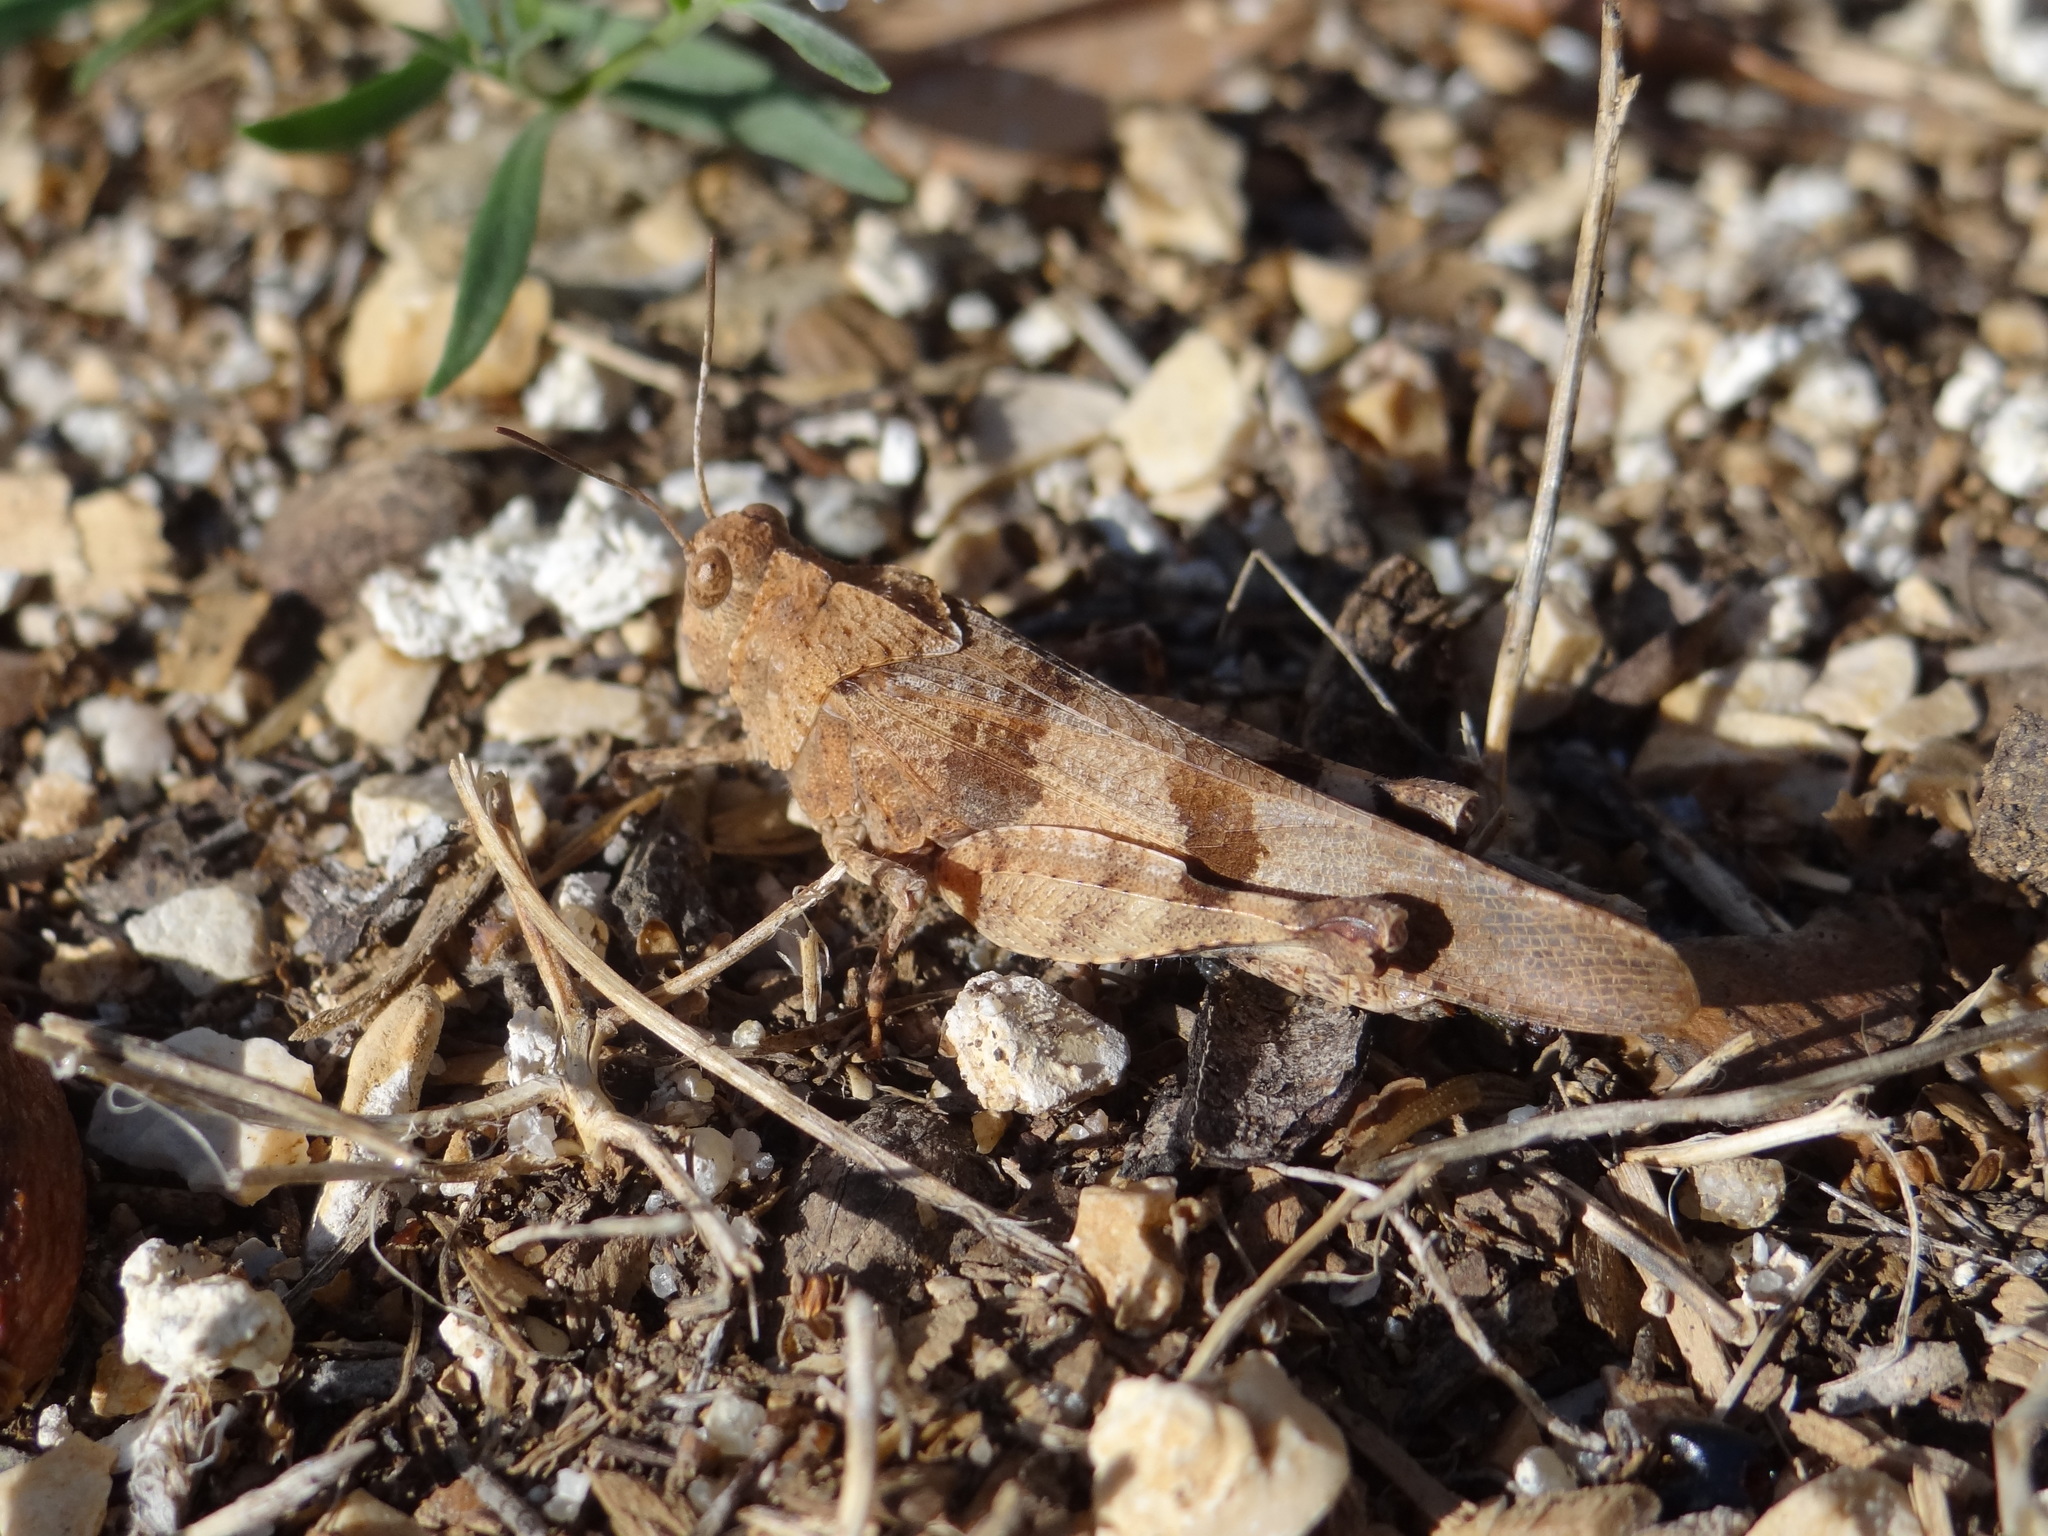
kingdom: Animalia
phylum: Arthropoda
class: Insecta
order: Orthoptera
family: Acrididae
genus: Oedipoda
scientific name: Oedipoda caerulescens
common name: Blue-winged grasshopper
